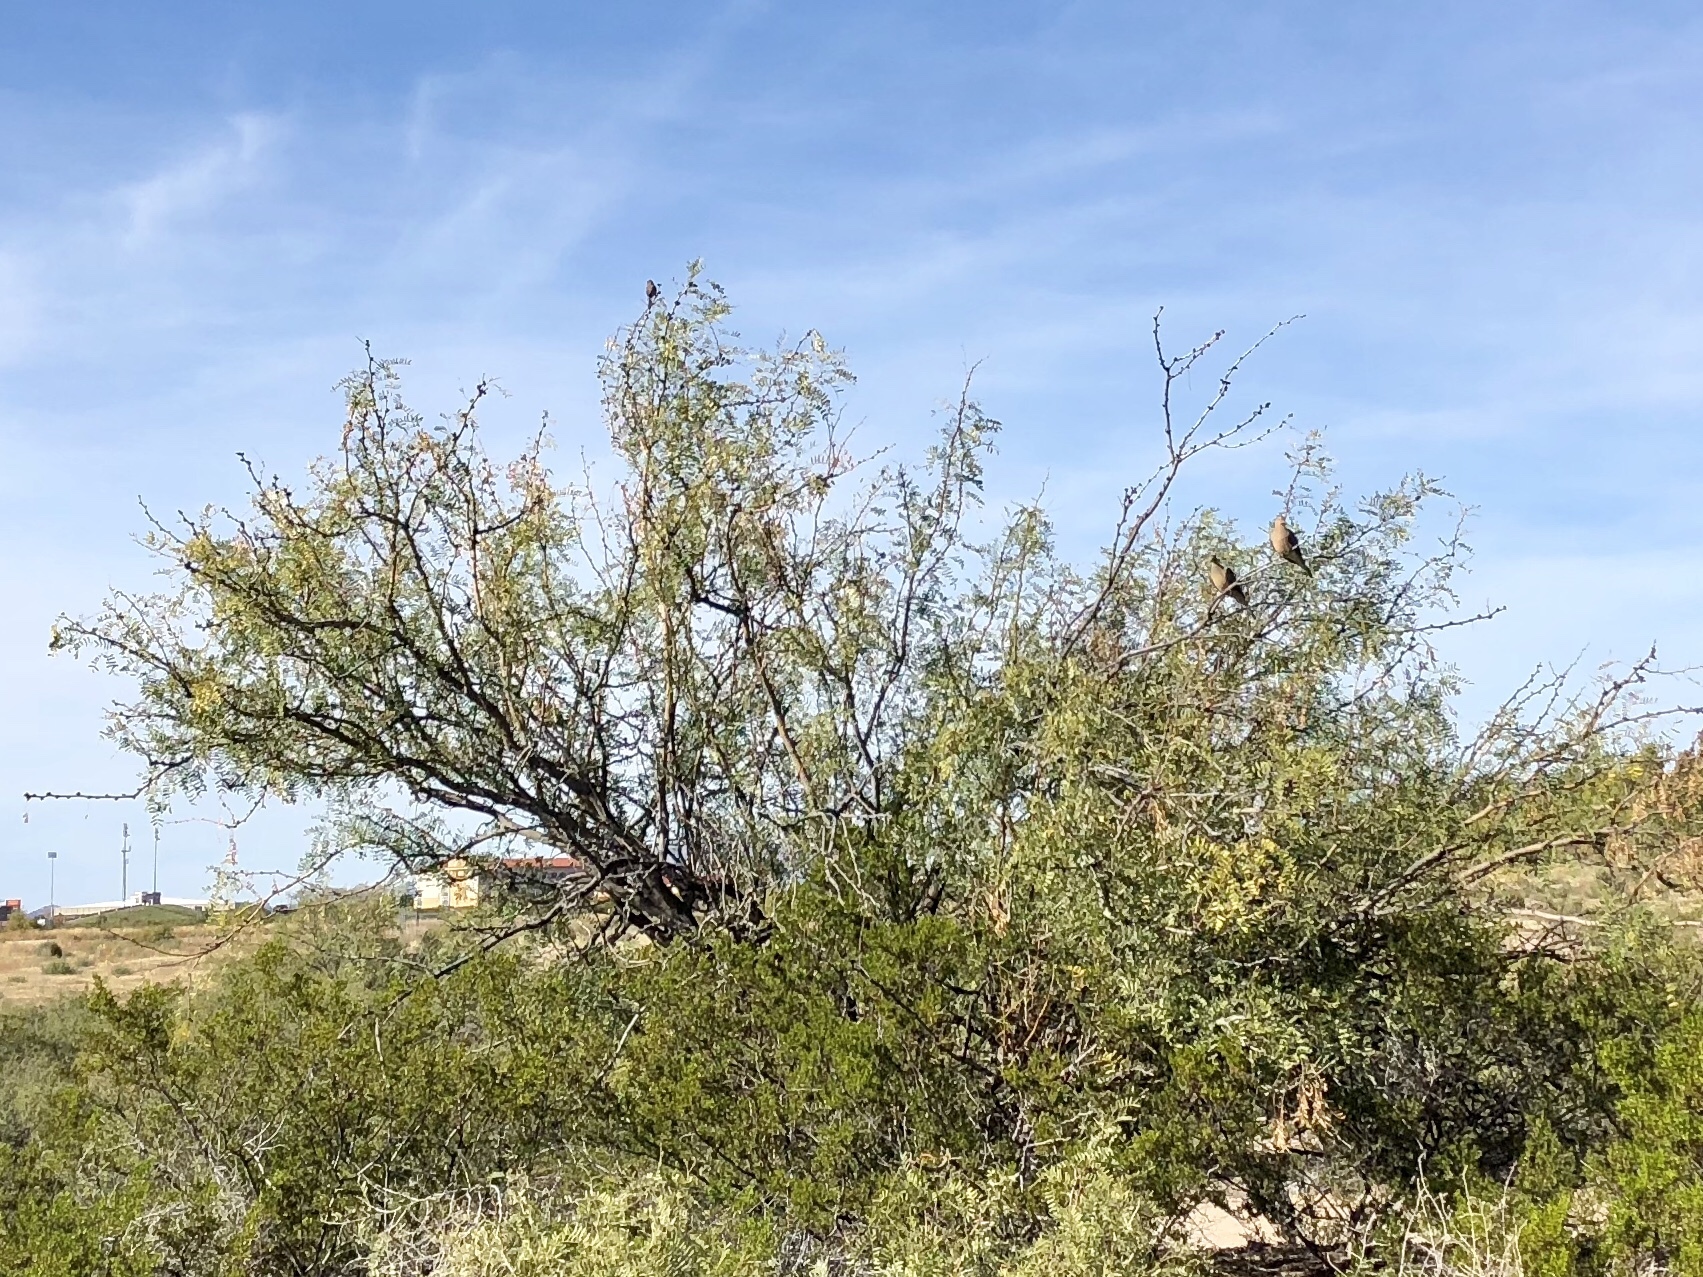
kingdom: Plantae
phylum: Tracheophyta
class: Magnoliopsida
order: Fabales
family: Fabaceae
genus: Prosopis
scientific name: Prosopis glandulosa
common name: Honey mesquite
